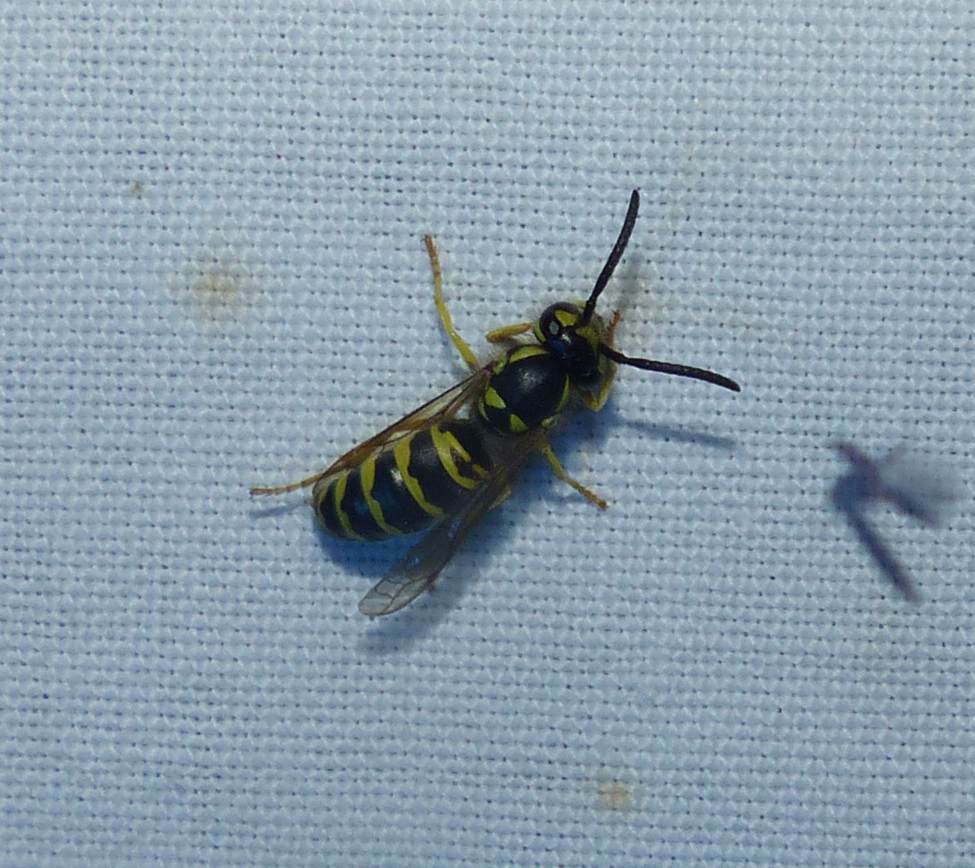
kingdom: Animalia
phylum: Arthropoda
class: Insecta
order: Hymenoptera
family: Vespidae
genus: Vespula
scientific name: Vespula maculifrons
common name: Eastern yellowjacket
